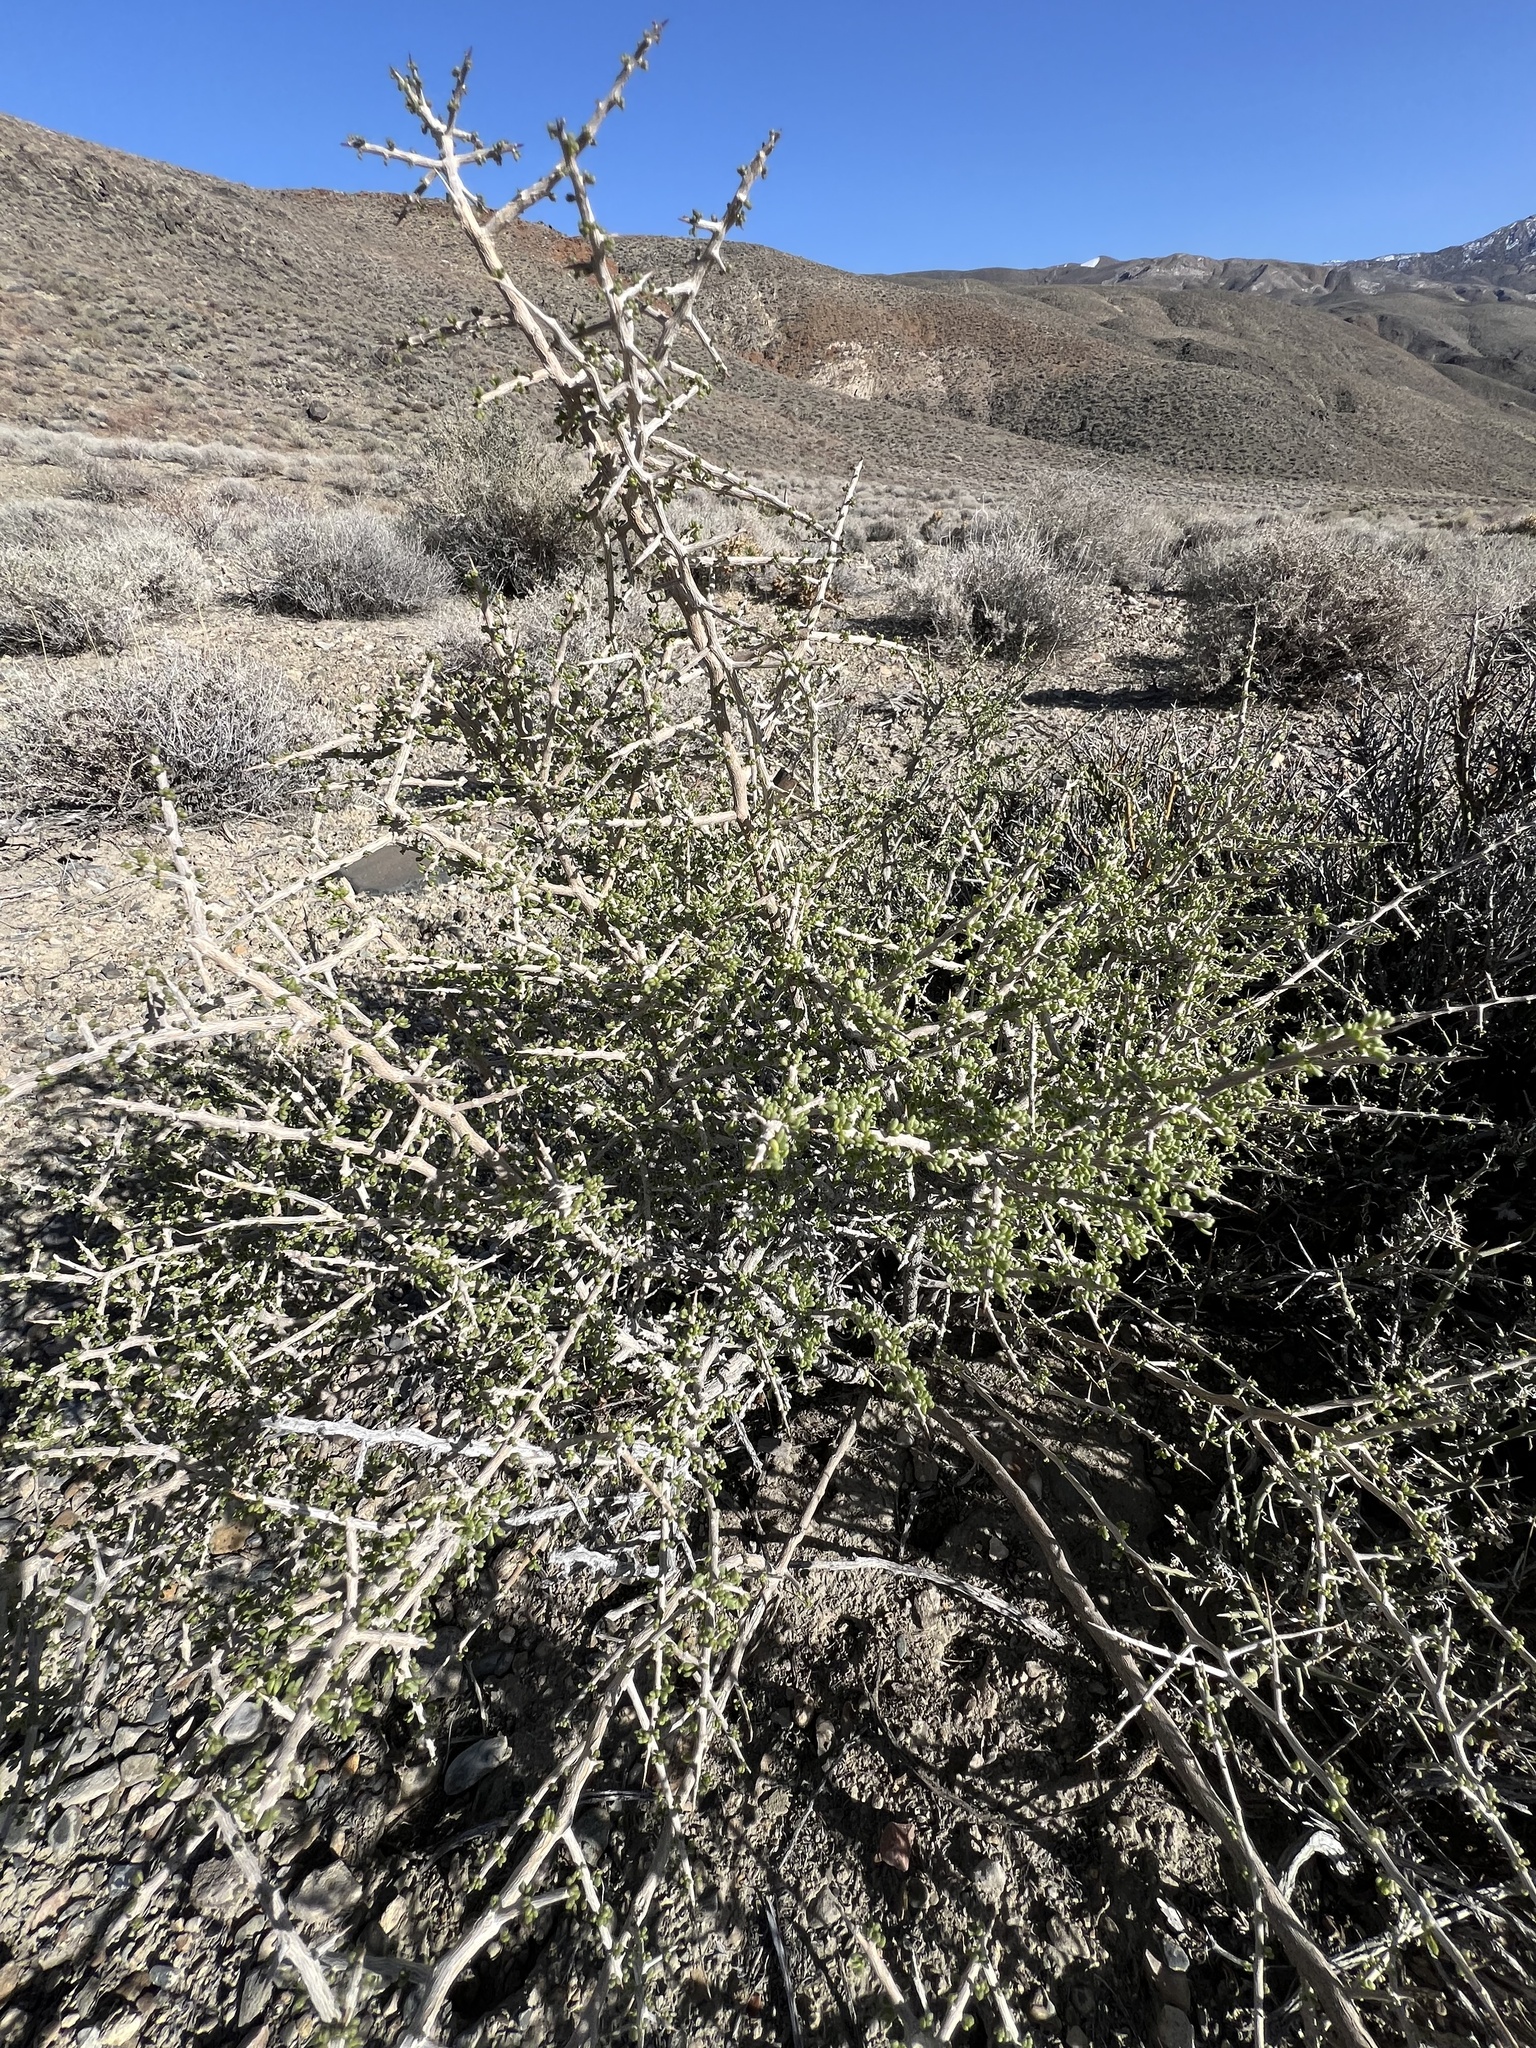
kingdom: Plantae
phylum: Tracheophyta
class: Magnoliopsida
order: Solanales
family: Solanaceae
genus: Lycium
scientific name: Lycium andersonii
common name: Water-jacket
